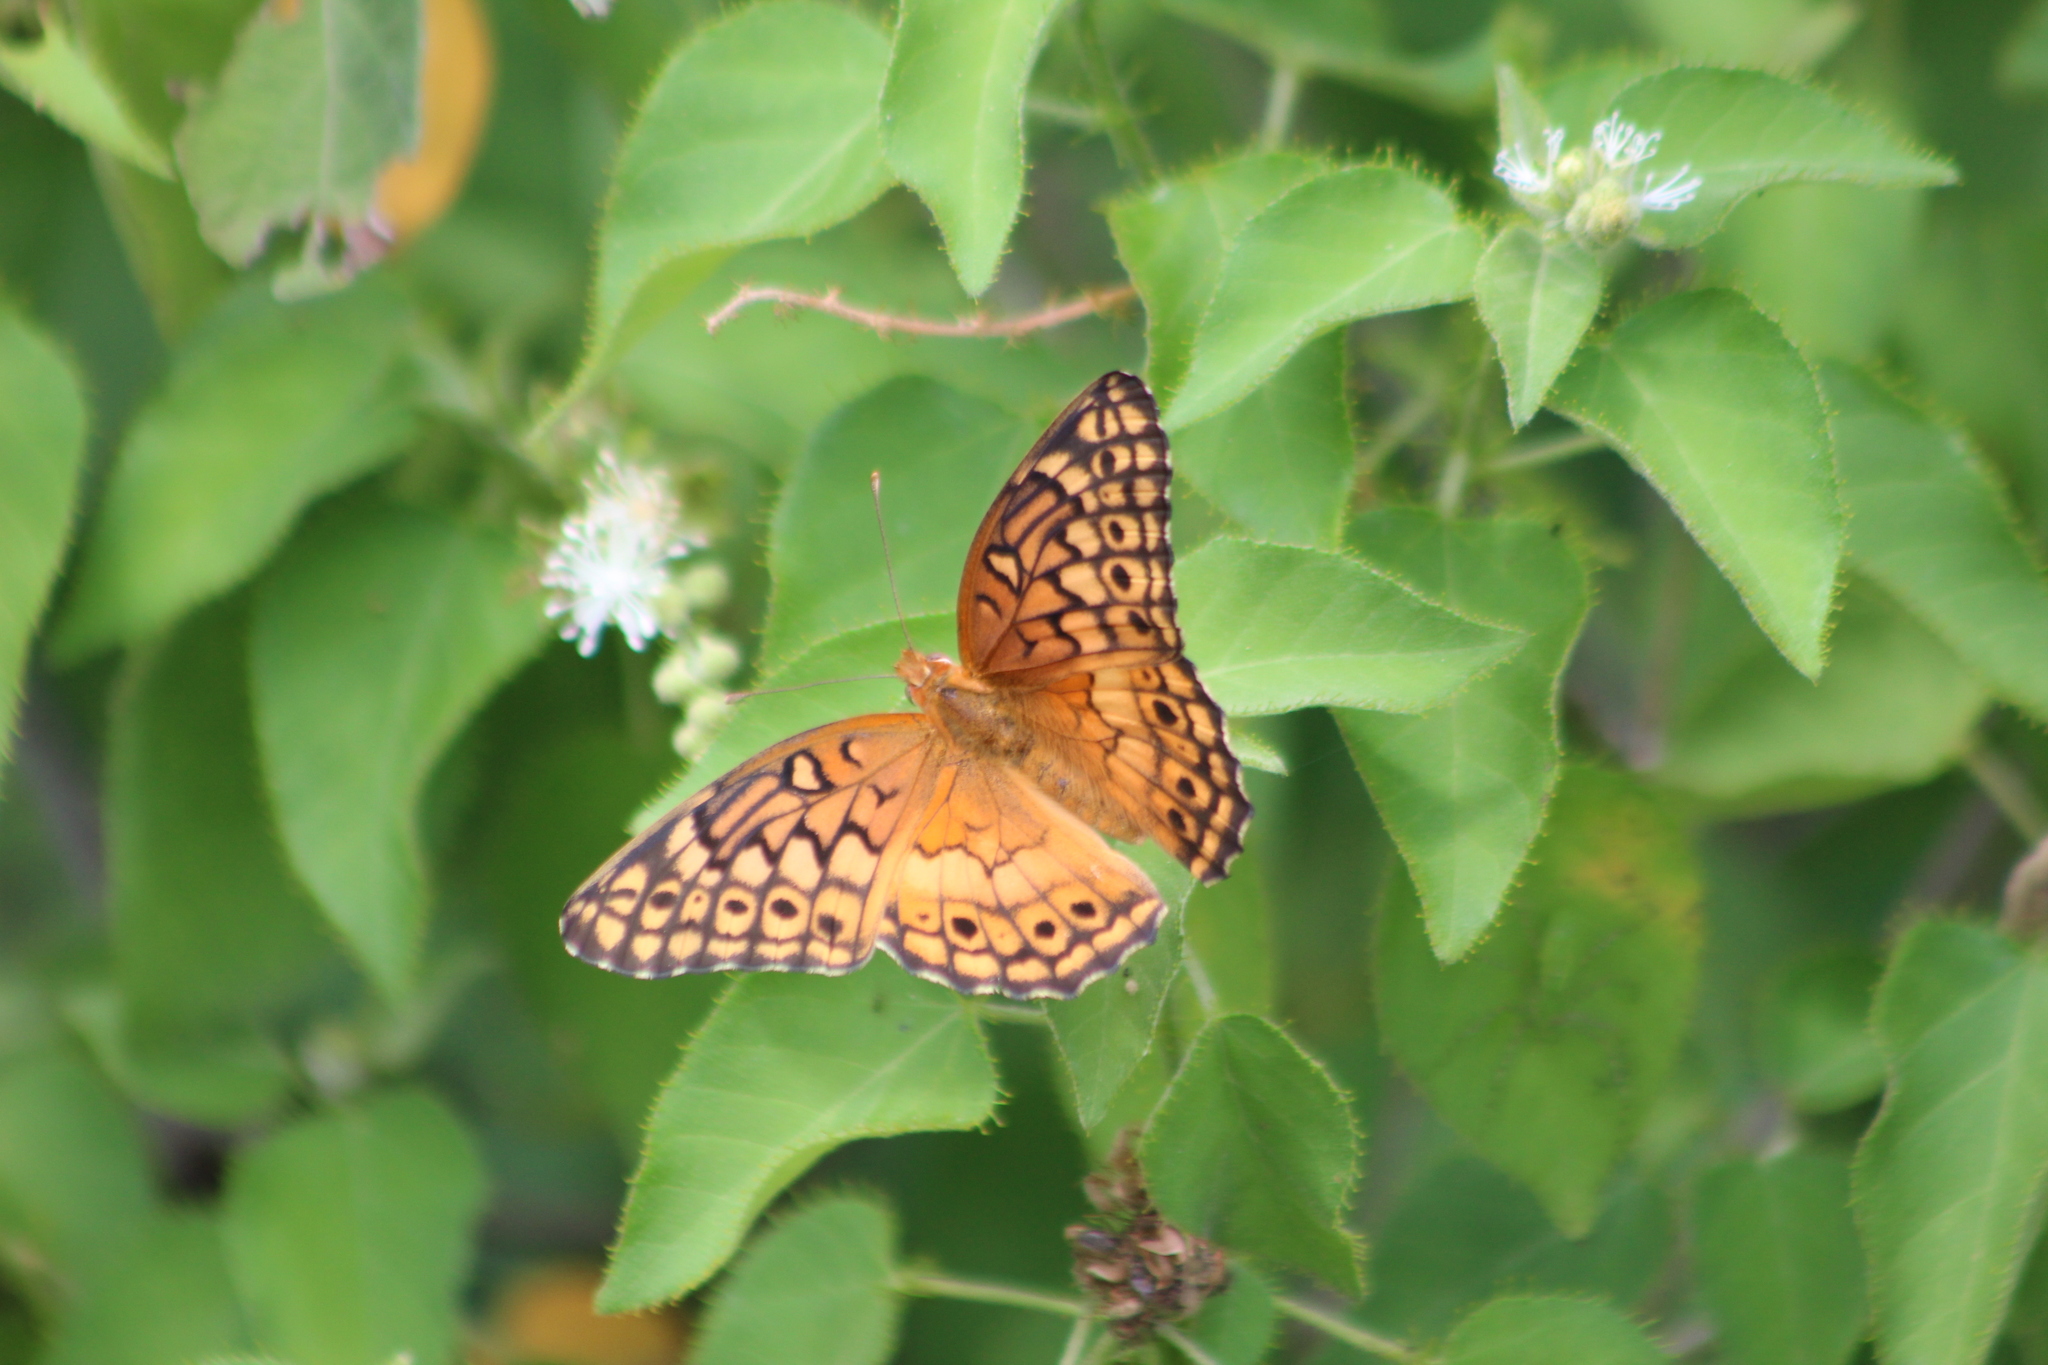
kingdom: Animalia
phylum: Arthropoda
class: Insecta
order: Lepidoptera
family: Nymphalidae
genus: Euptoieta
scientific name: Euptoieta claudia
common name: Variegated fritillary
